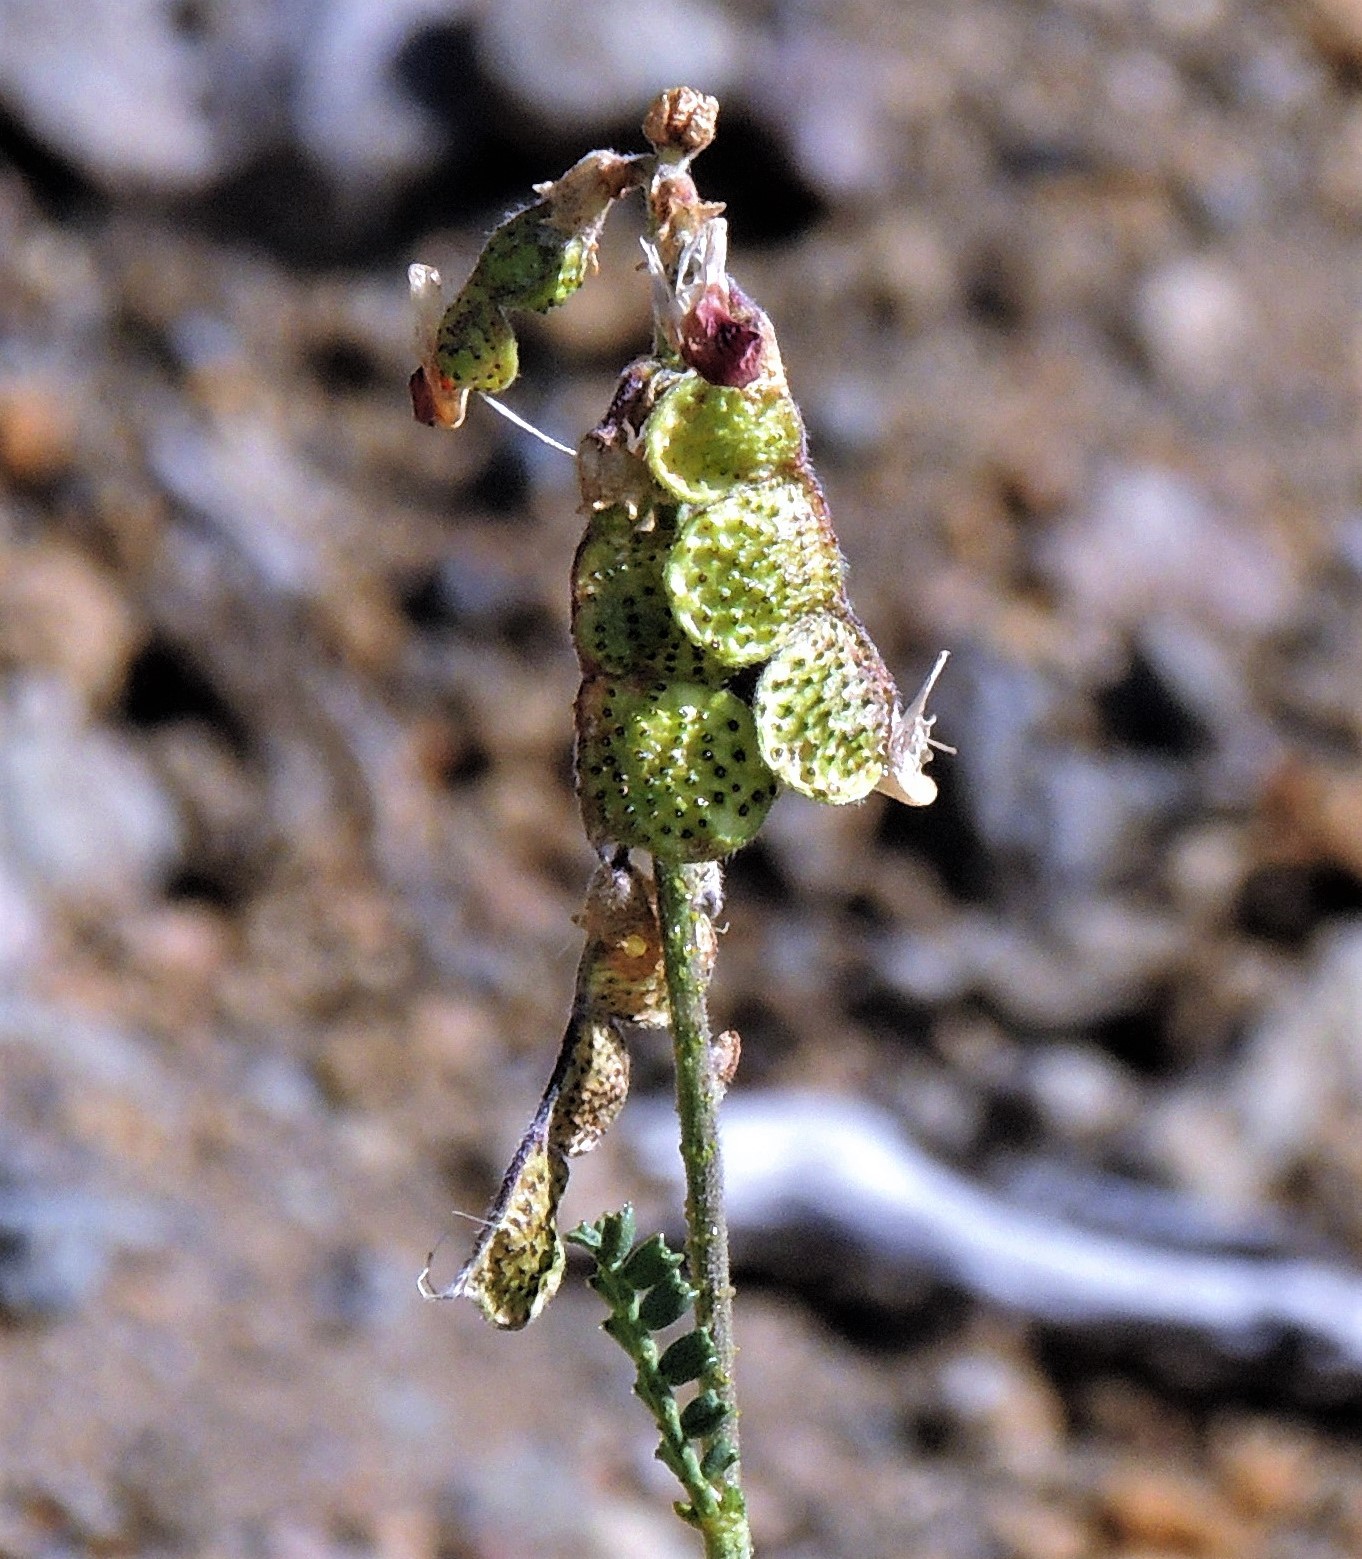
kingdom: Plantae
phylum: Tracheophyta
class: Magnoliopsida
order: Fabales
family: Fabaceae
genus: Adesmia
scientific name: Adesmia guttulifera
